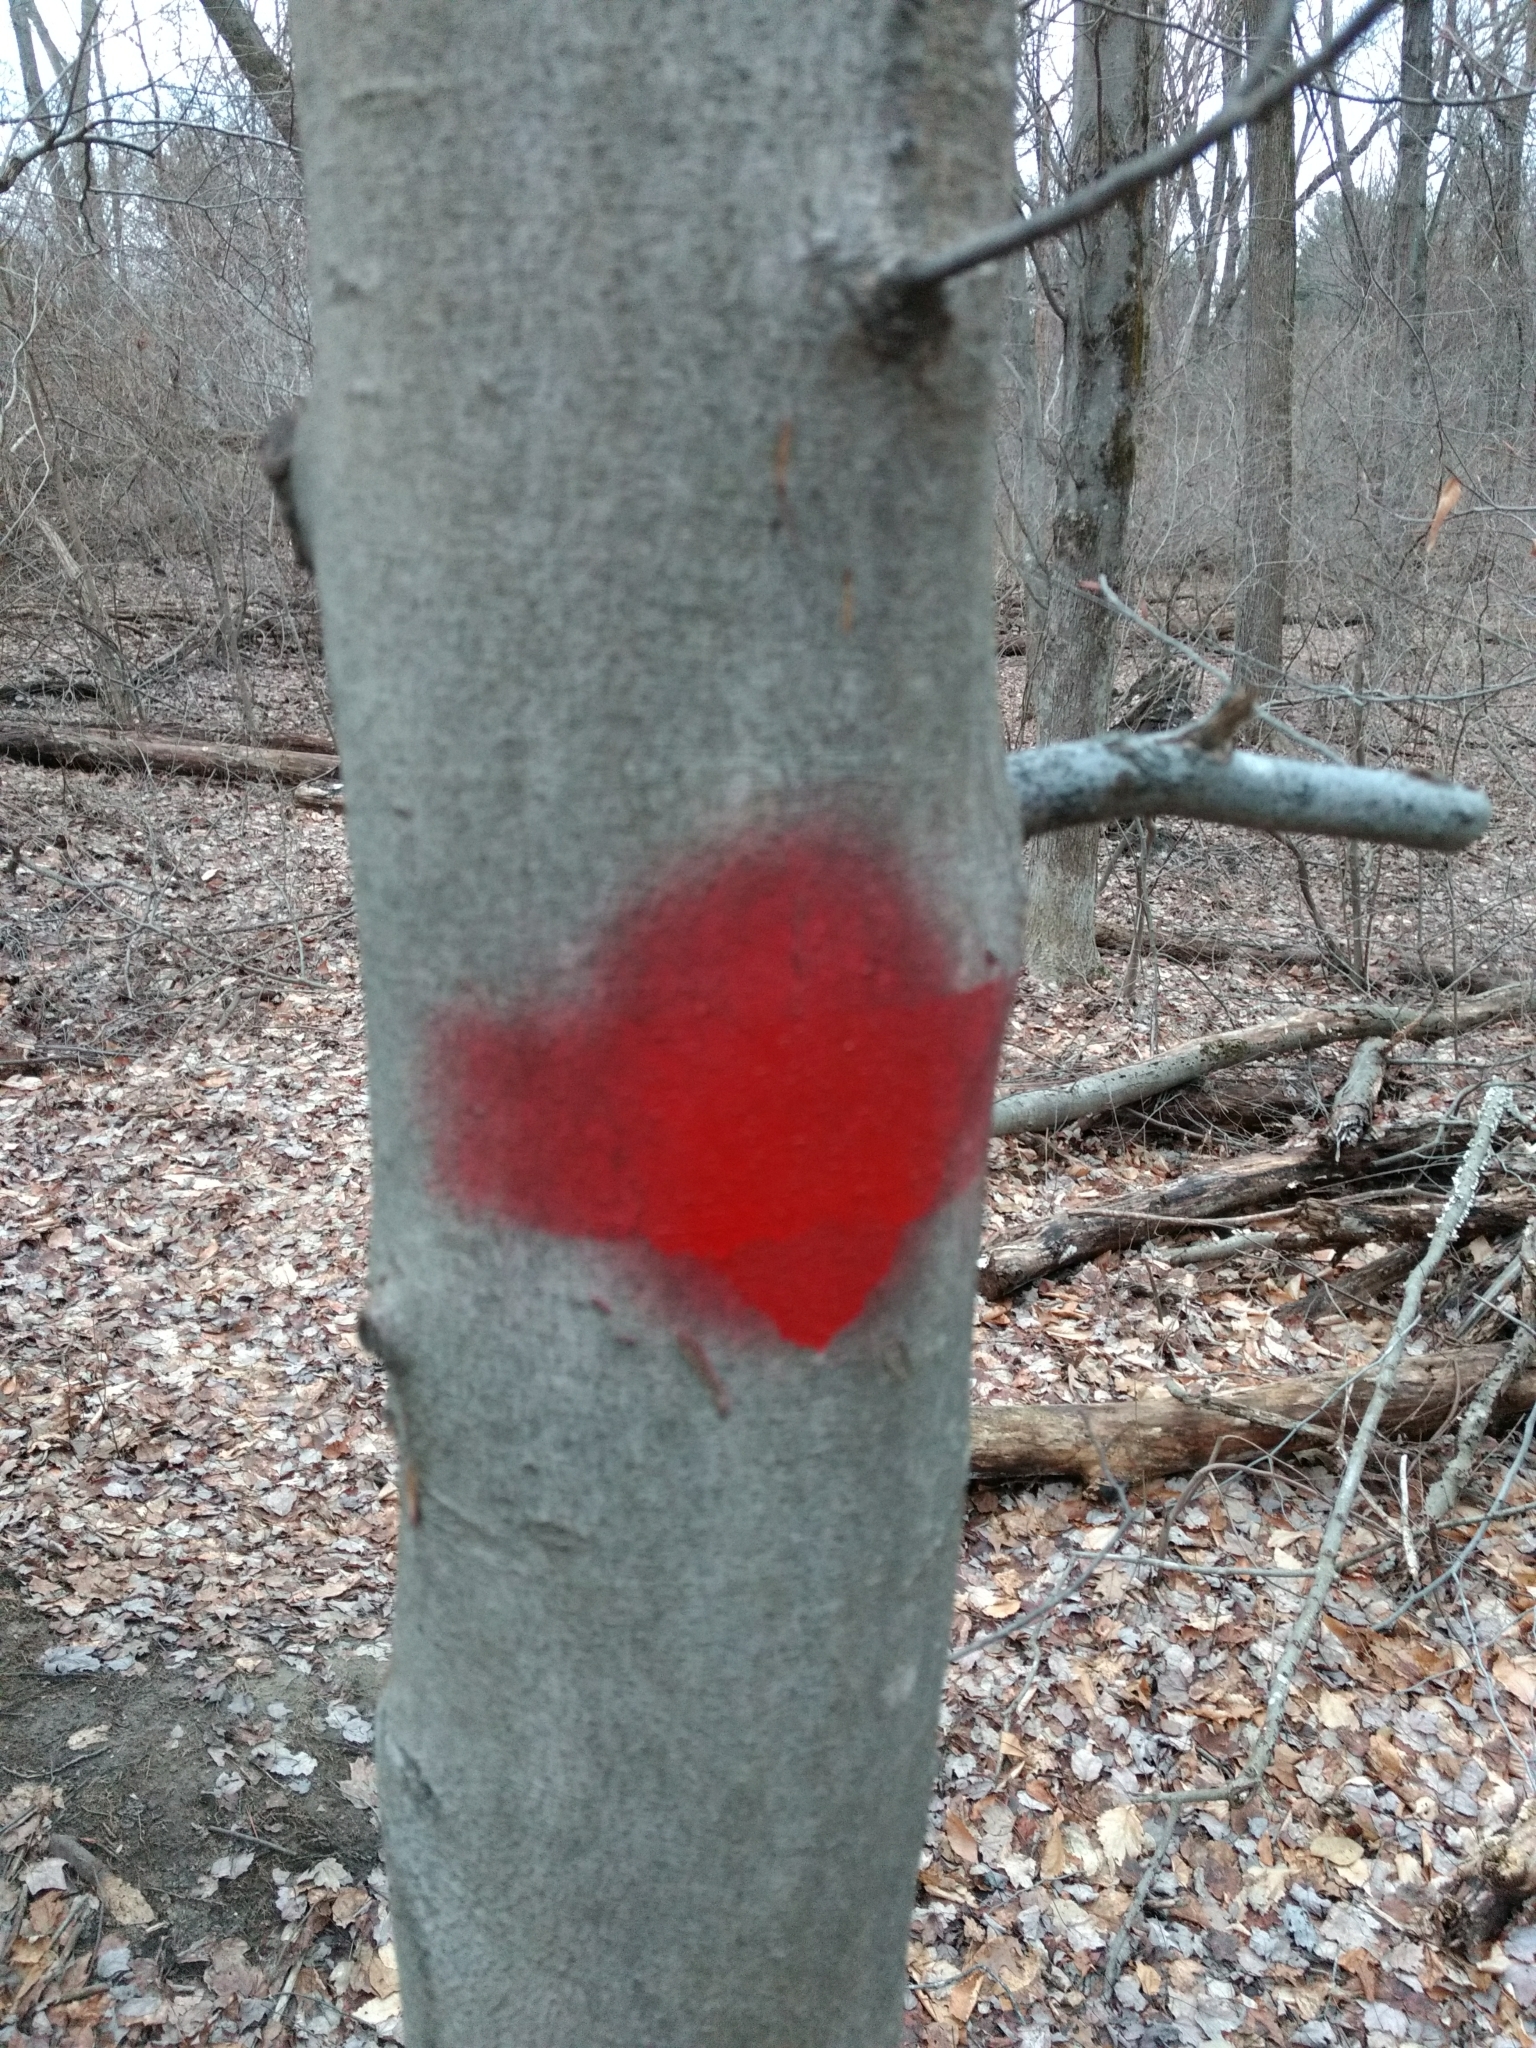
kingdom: Plantae
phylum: Tracheophyta
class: Magnoliopsida
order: Fagales
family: Fagaceae
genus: Fagus
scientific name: Fagus grandifolia
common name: American beech
